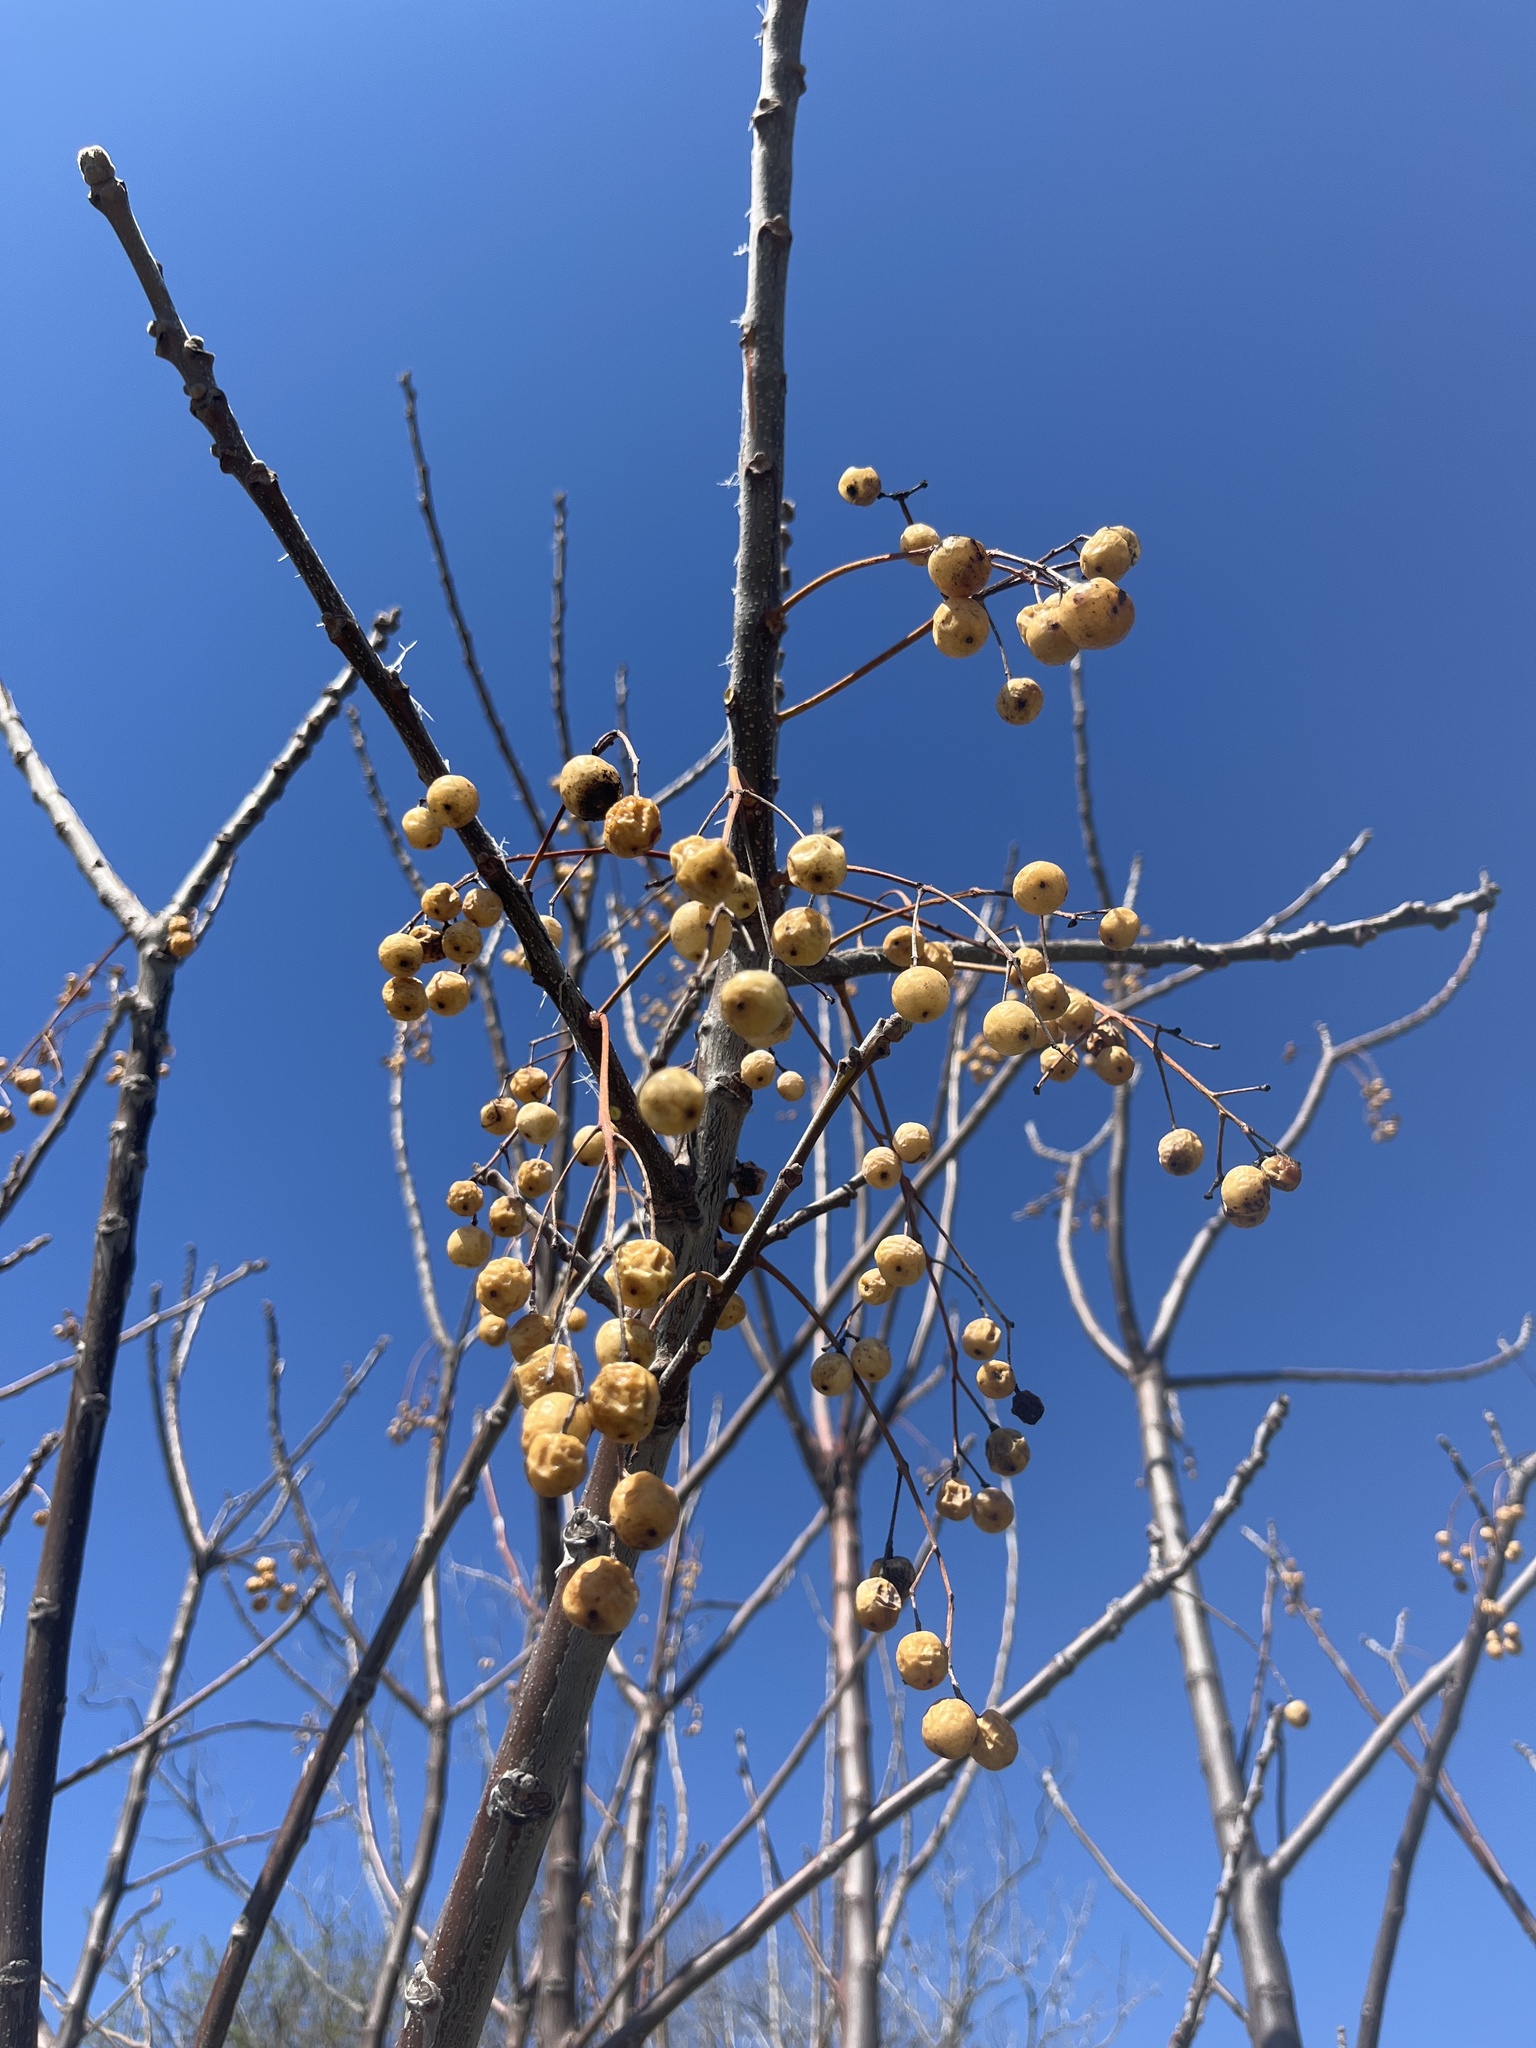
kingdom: Plantae
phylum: Tracheophyta
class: Magnoliopsida
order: Sapindales
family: Meliaceae
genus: Melia
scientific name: Melia azedarach
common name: Chinaberrytree
